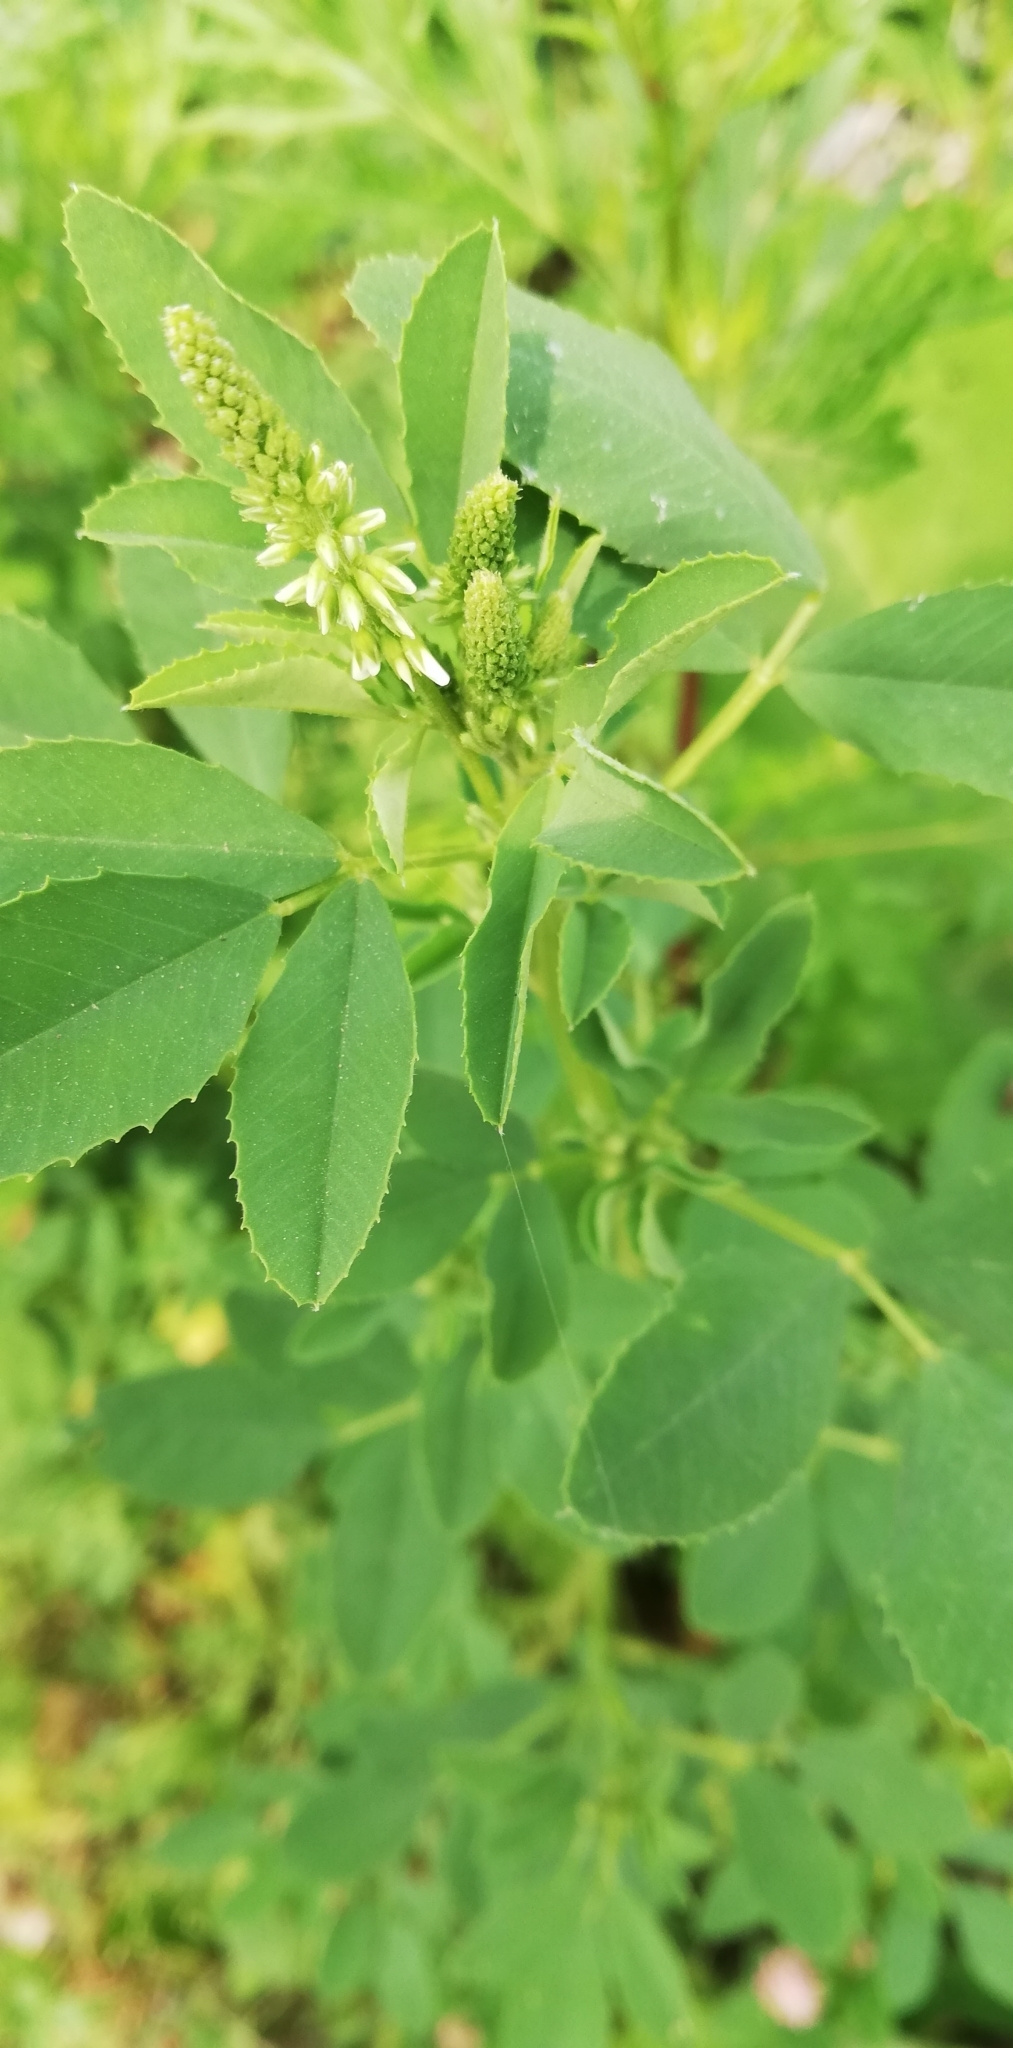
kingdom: Plantae
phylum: Tracheophyta
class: Magnoliopsida
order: Fabales
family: Fabaceae
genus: Melilotus
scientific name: Melilotus albus
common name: White melilot
